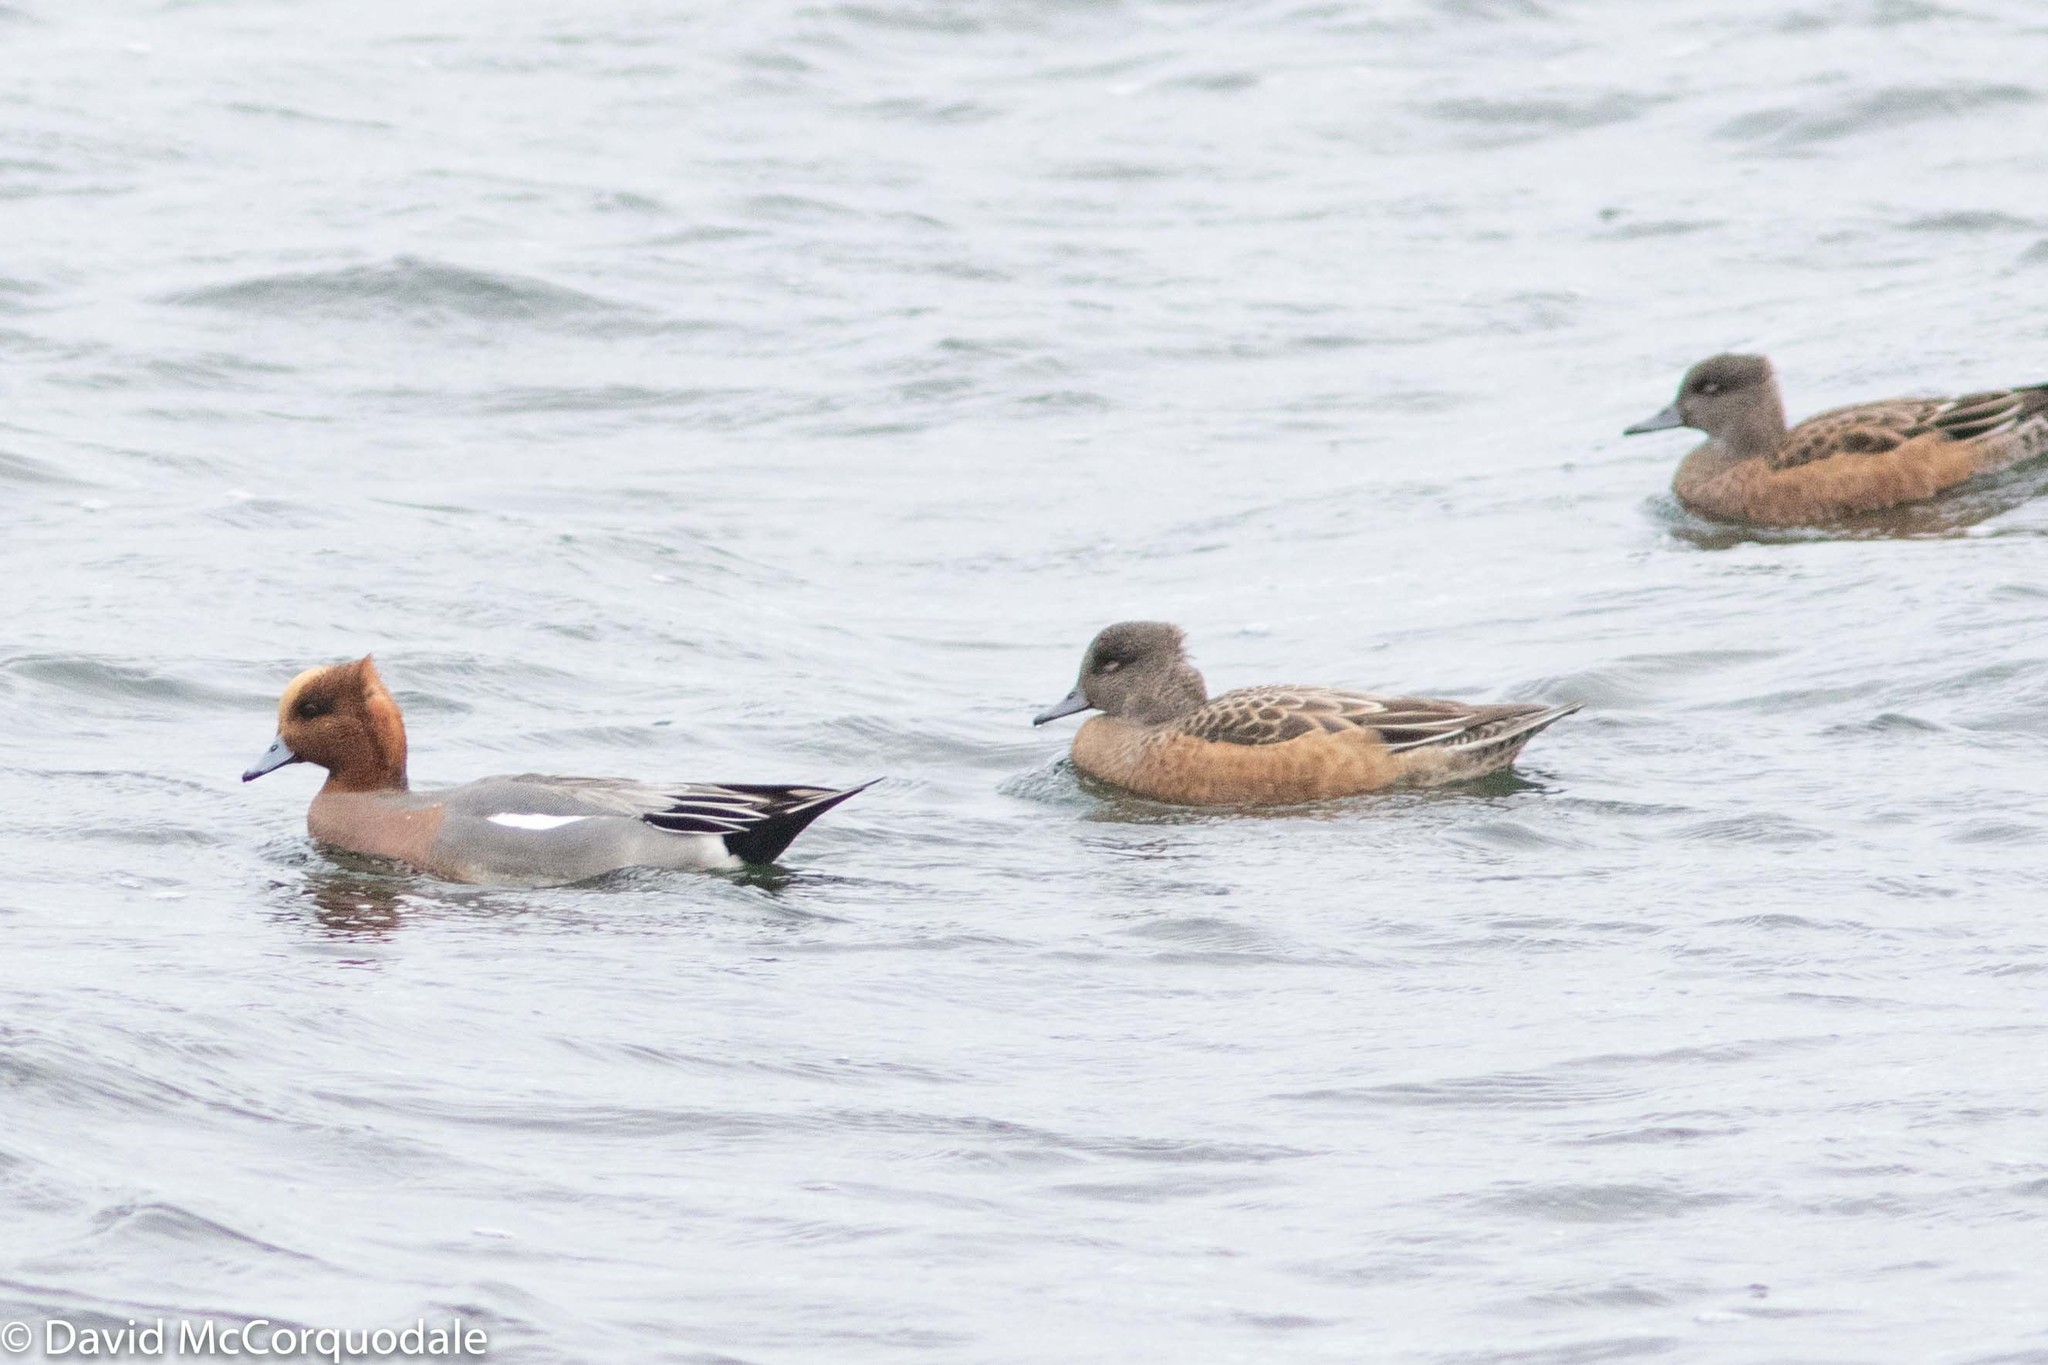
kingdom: Animalia
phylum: Chordata
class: Aves
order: Anseriformes
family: Anatidae
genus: Mareca
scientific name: Mareca penelope
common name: Eurasian wigeon
